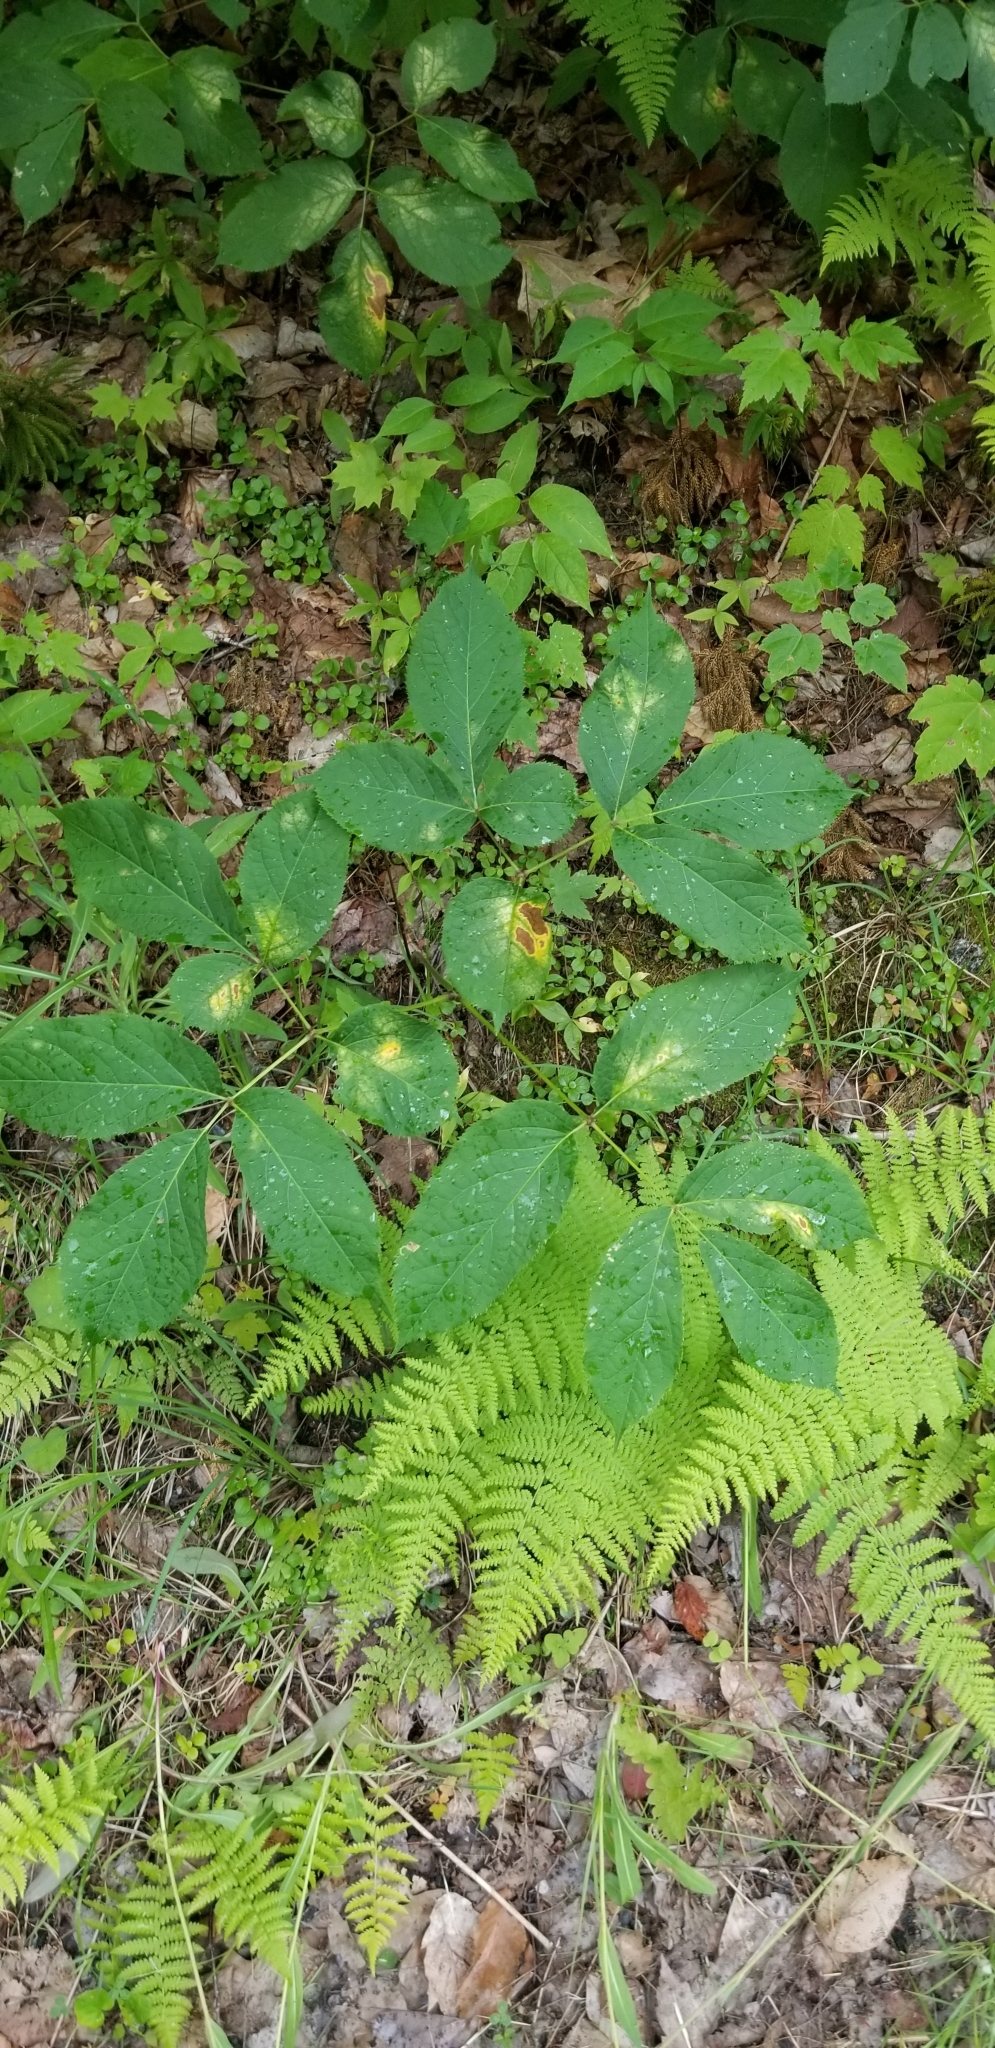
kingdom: Plantae
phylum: Tracheophyta
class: Magnoliopsida
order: Apiales
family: Araliaceae
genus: Aralia
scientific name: Aralia nudicaulis
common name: Wild sarsaparilla
